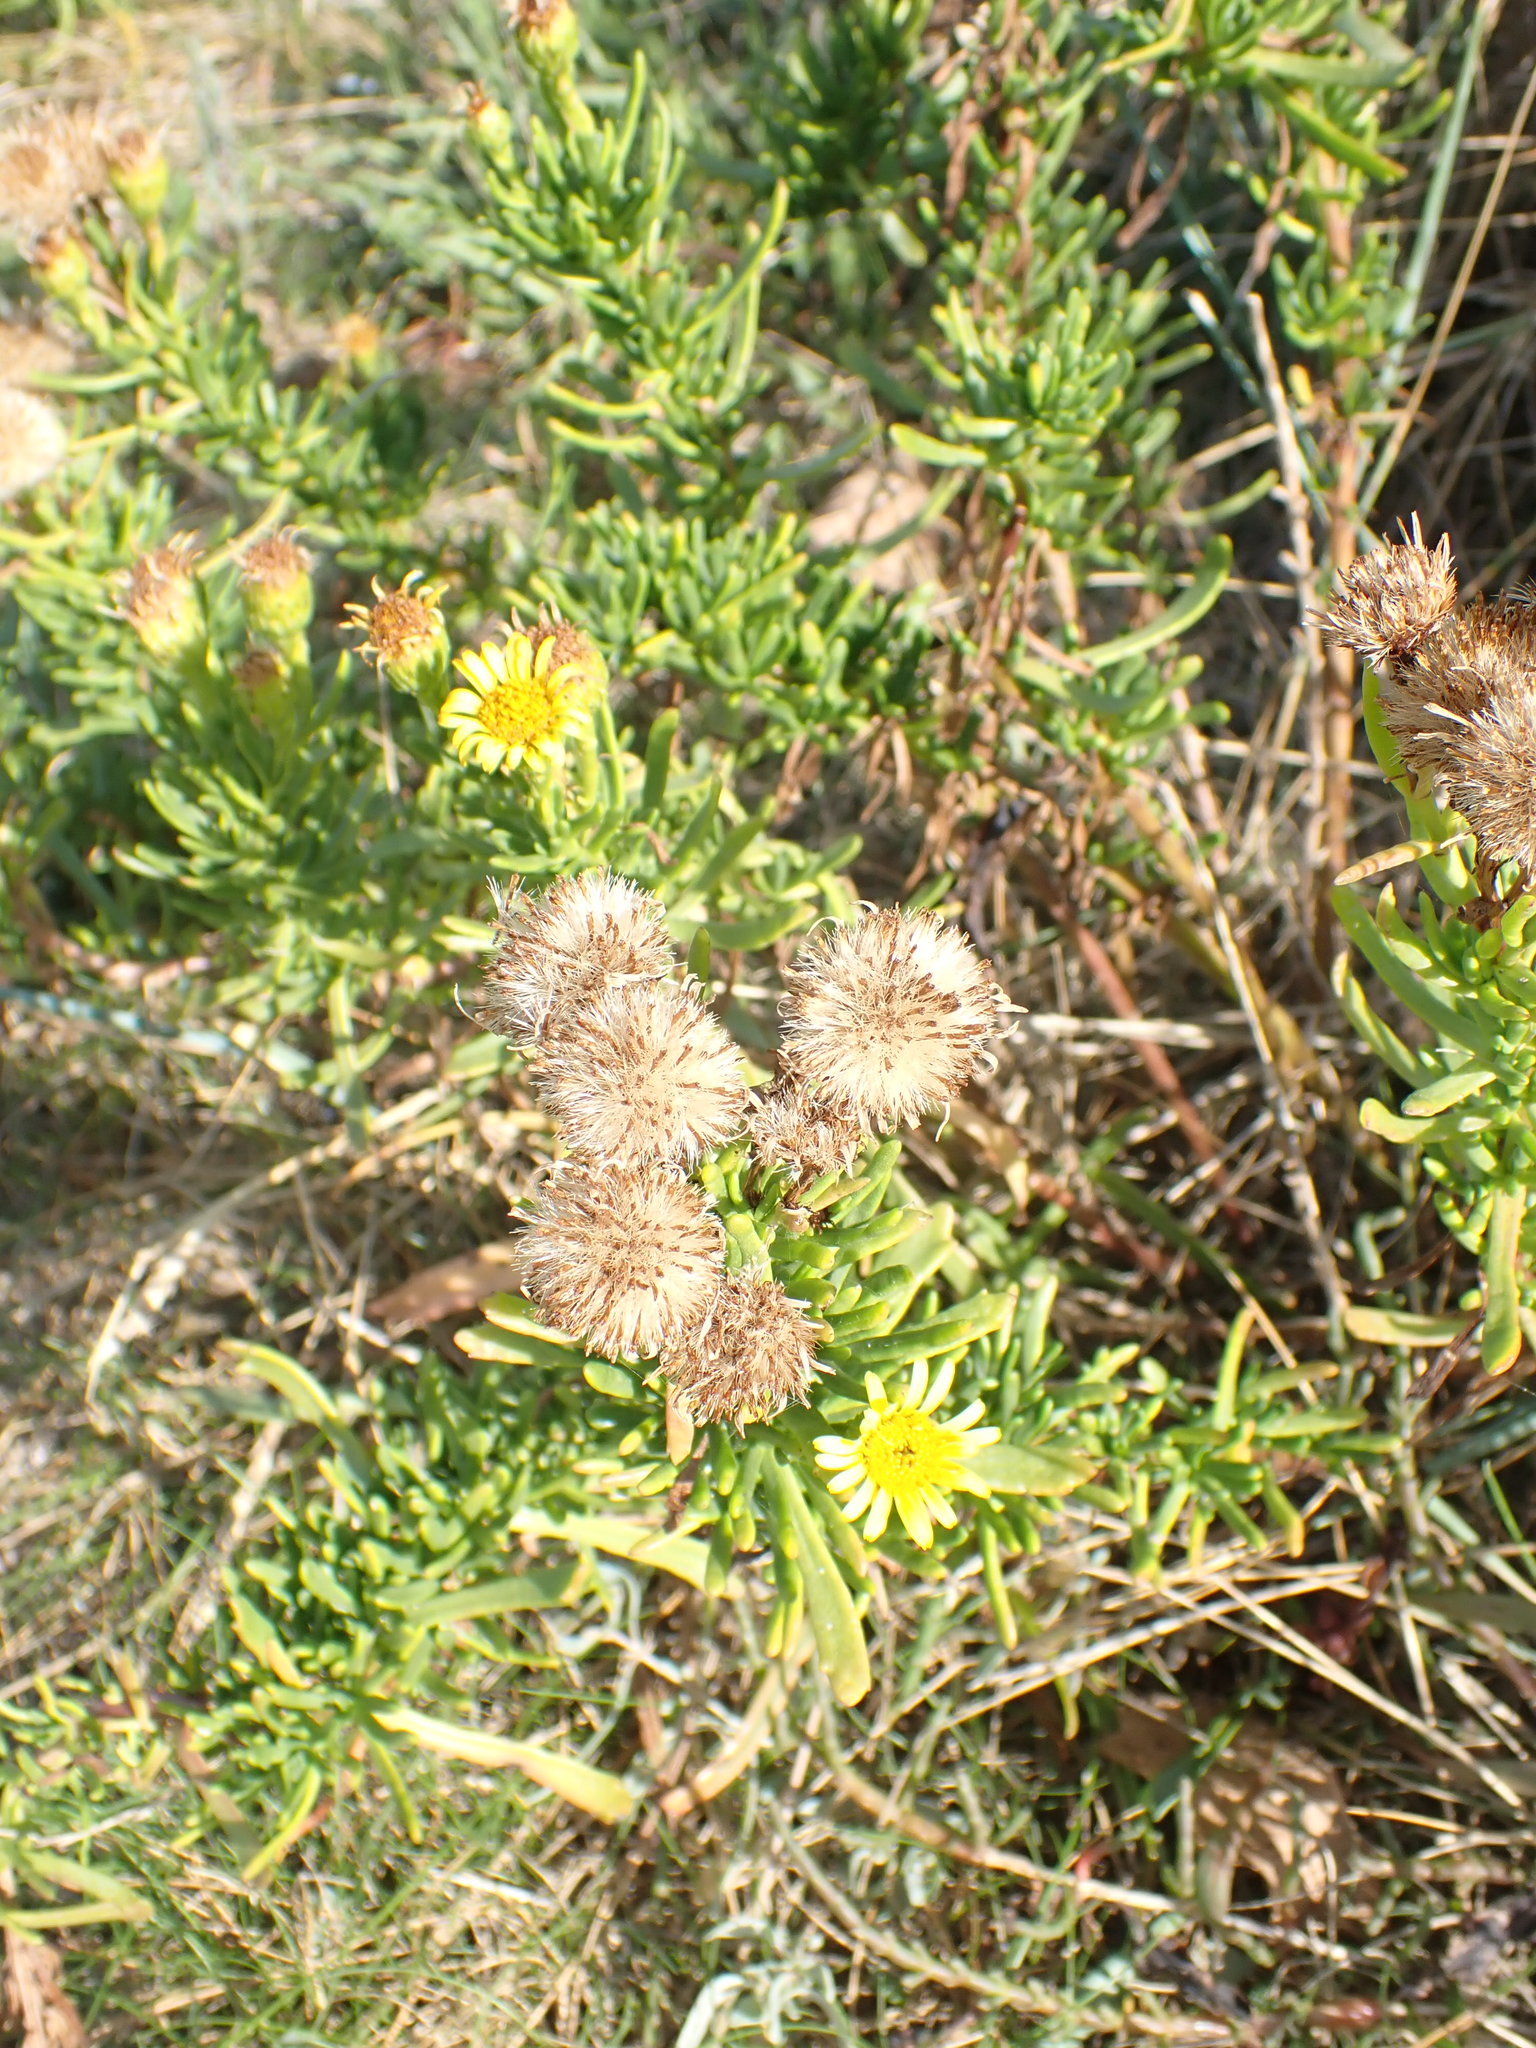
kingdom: Plantae
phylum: Tracheophyta
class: Magnoliopsida
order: Asterales
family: Asteraceae
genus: Limbarda
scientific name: Limbarda crithmoides
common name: Golden samphire
